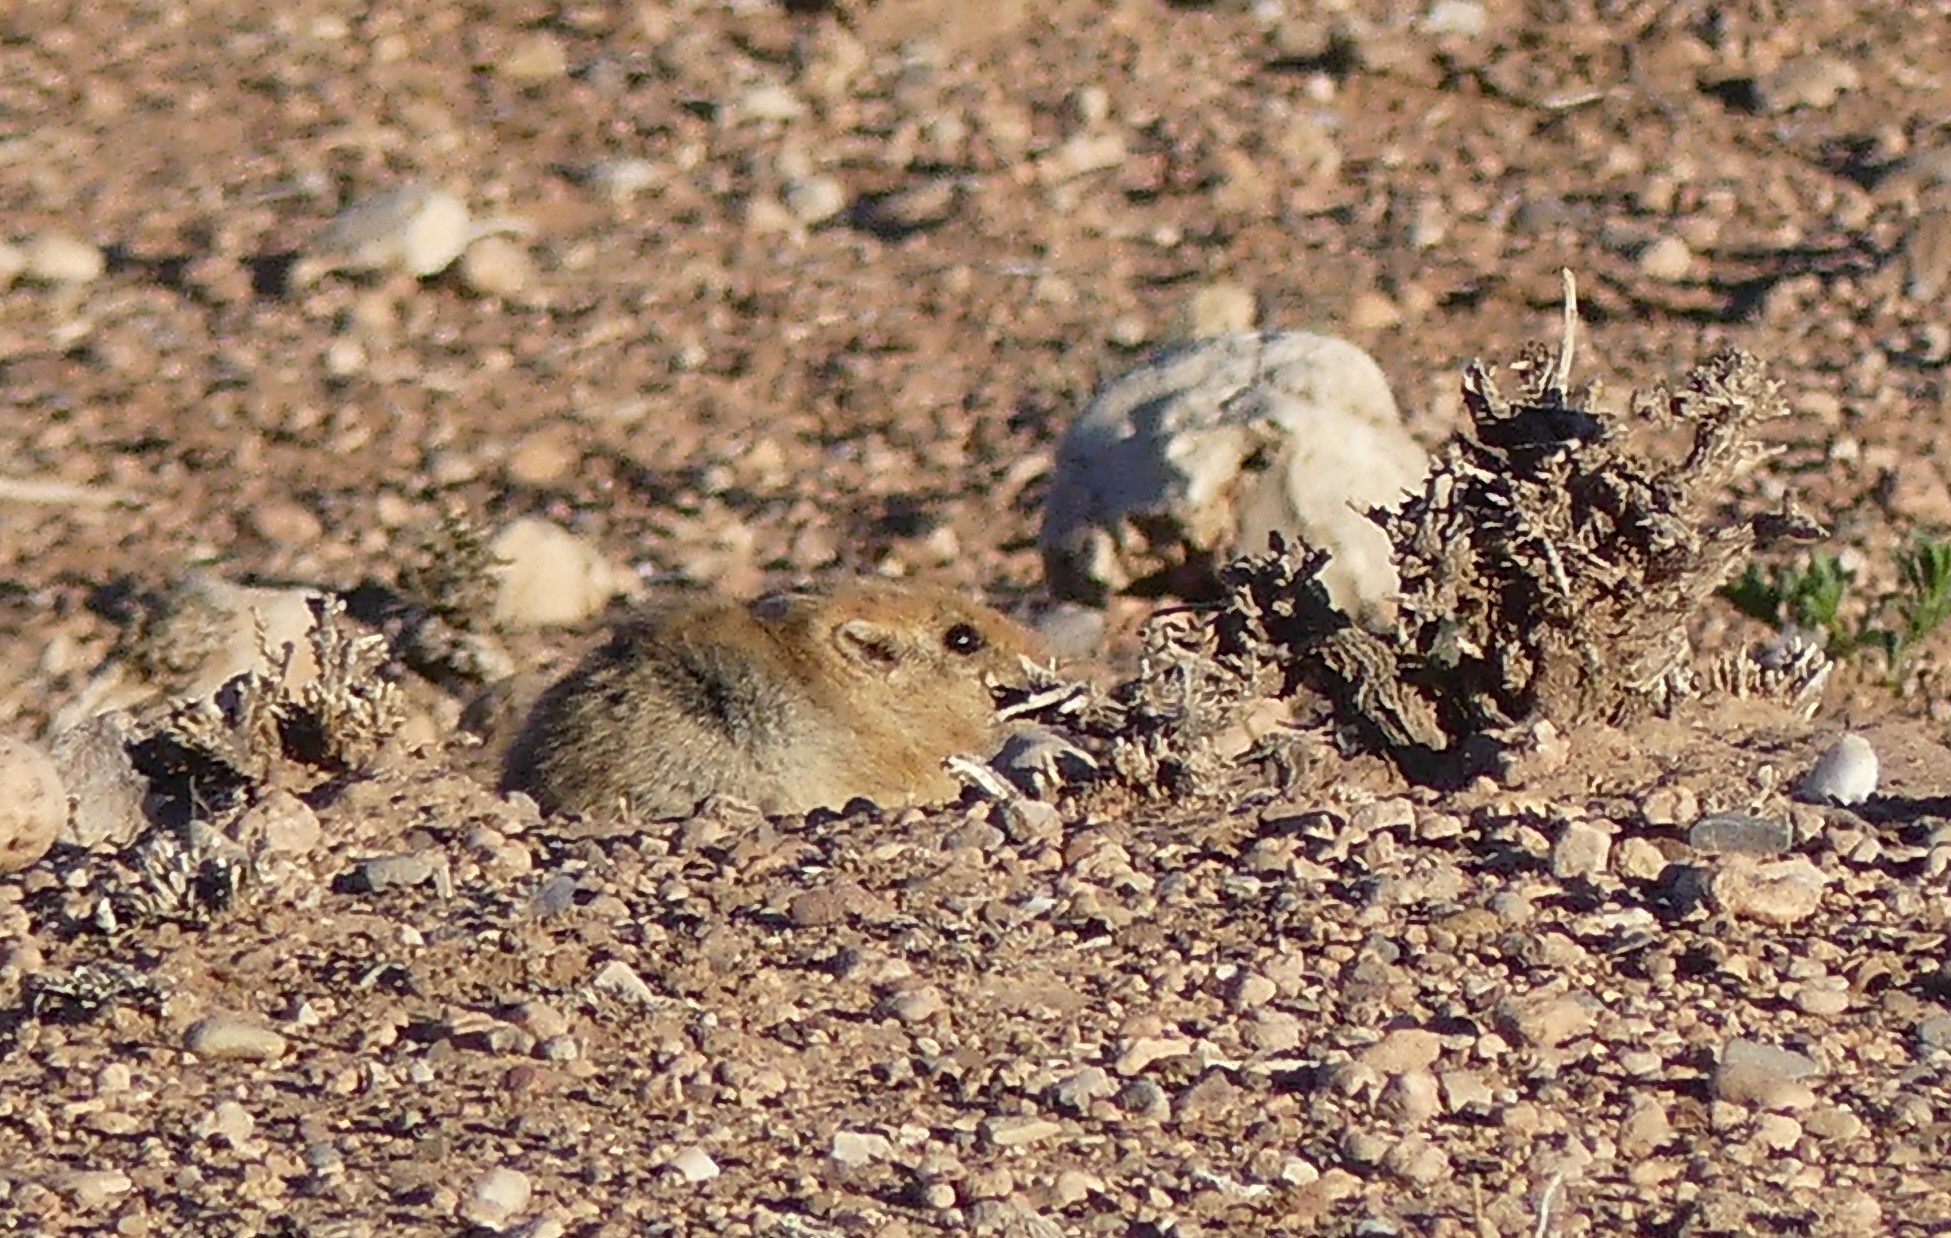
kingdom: Animalia
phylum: Chordata
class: Mammalia
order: Rodentia
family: Muridae
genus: Psammomys
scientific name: Psammomys obesus
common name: Fat sand rat
